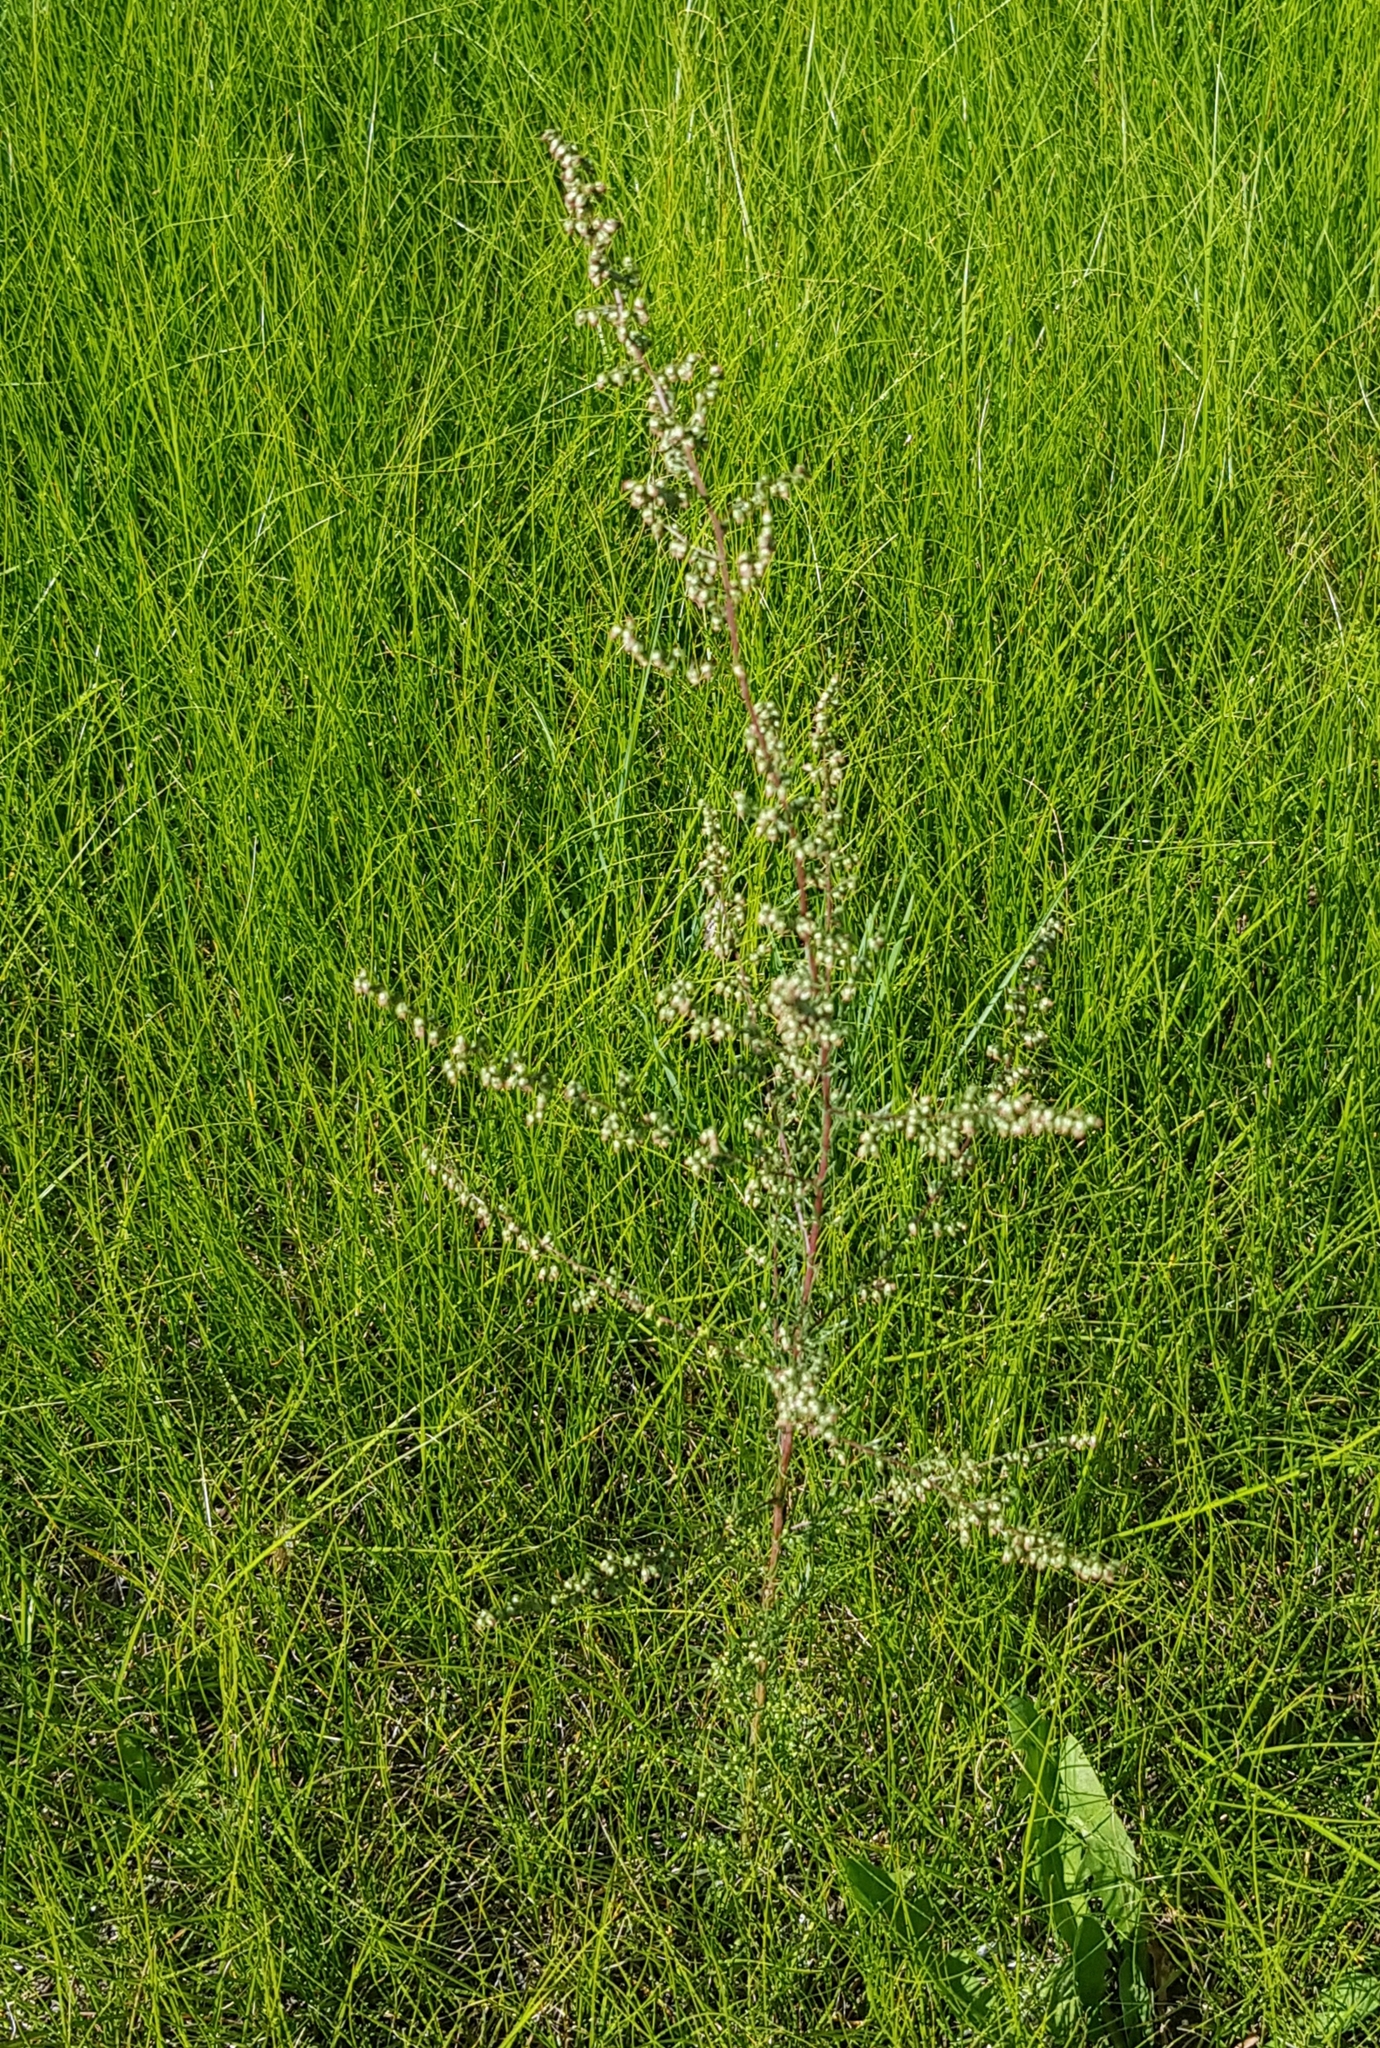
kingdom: Plantae
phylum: Tracheophyta
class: Magnoliopsida
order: Asterales
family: Asteraceae
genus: Artemisia
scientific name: Artemisia scoparia
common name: Redstem wormwood
